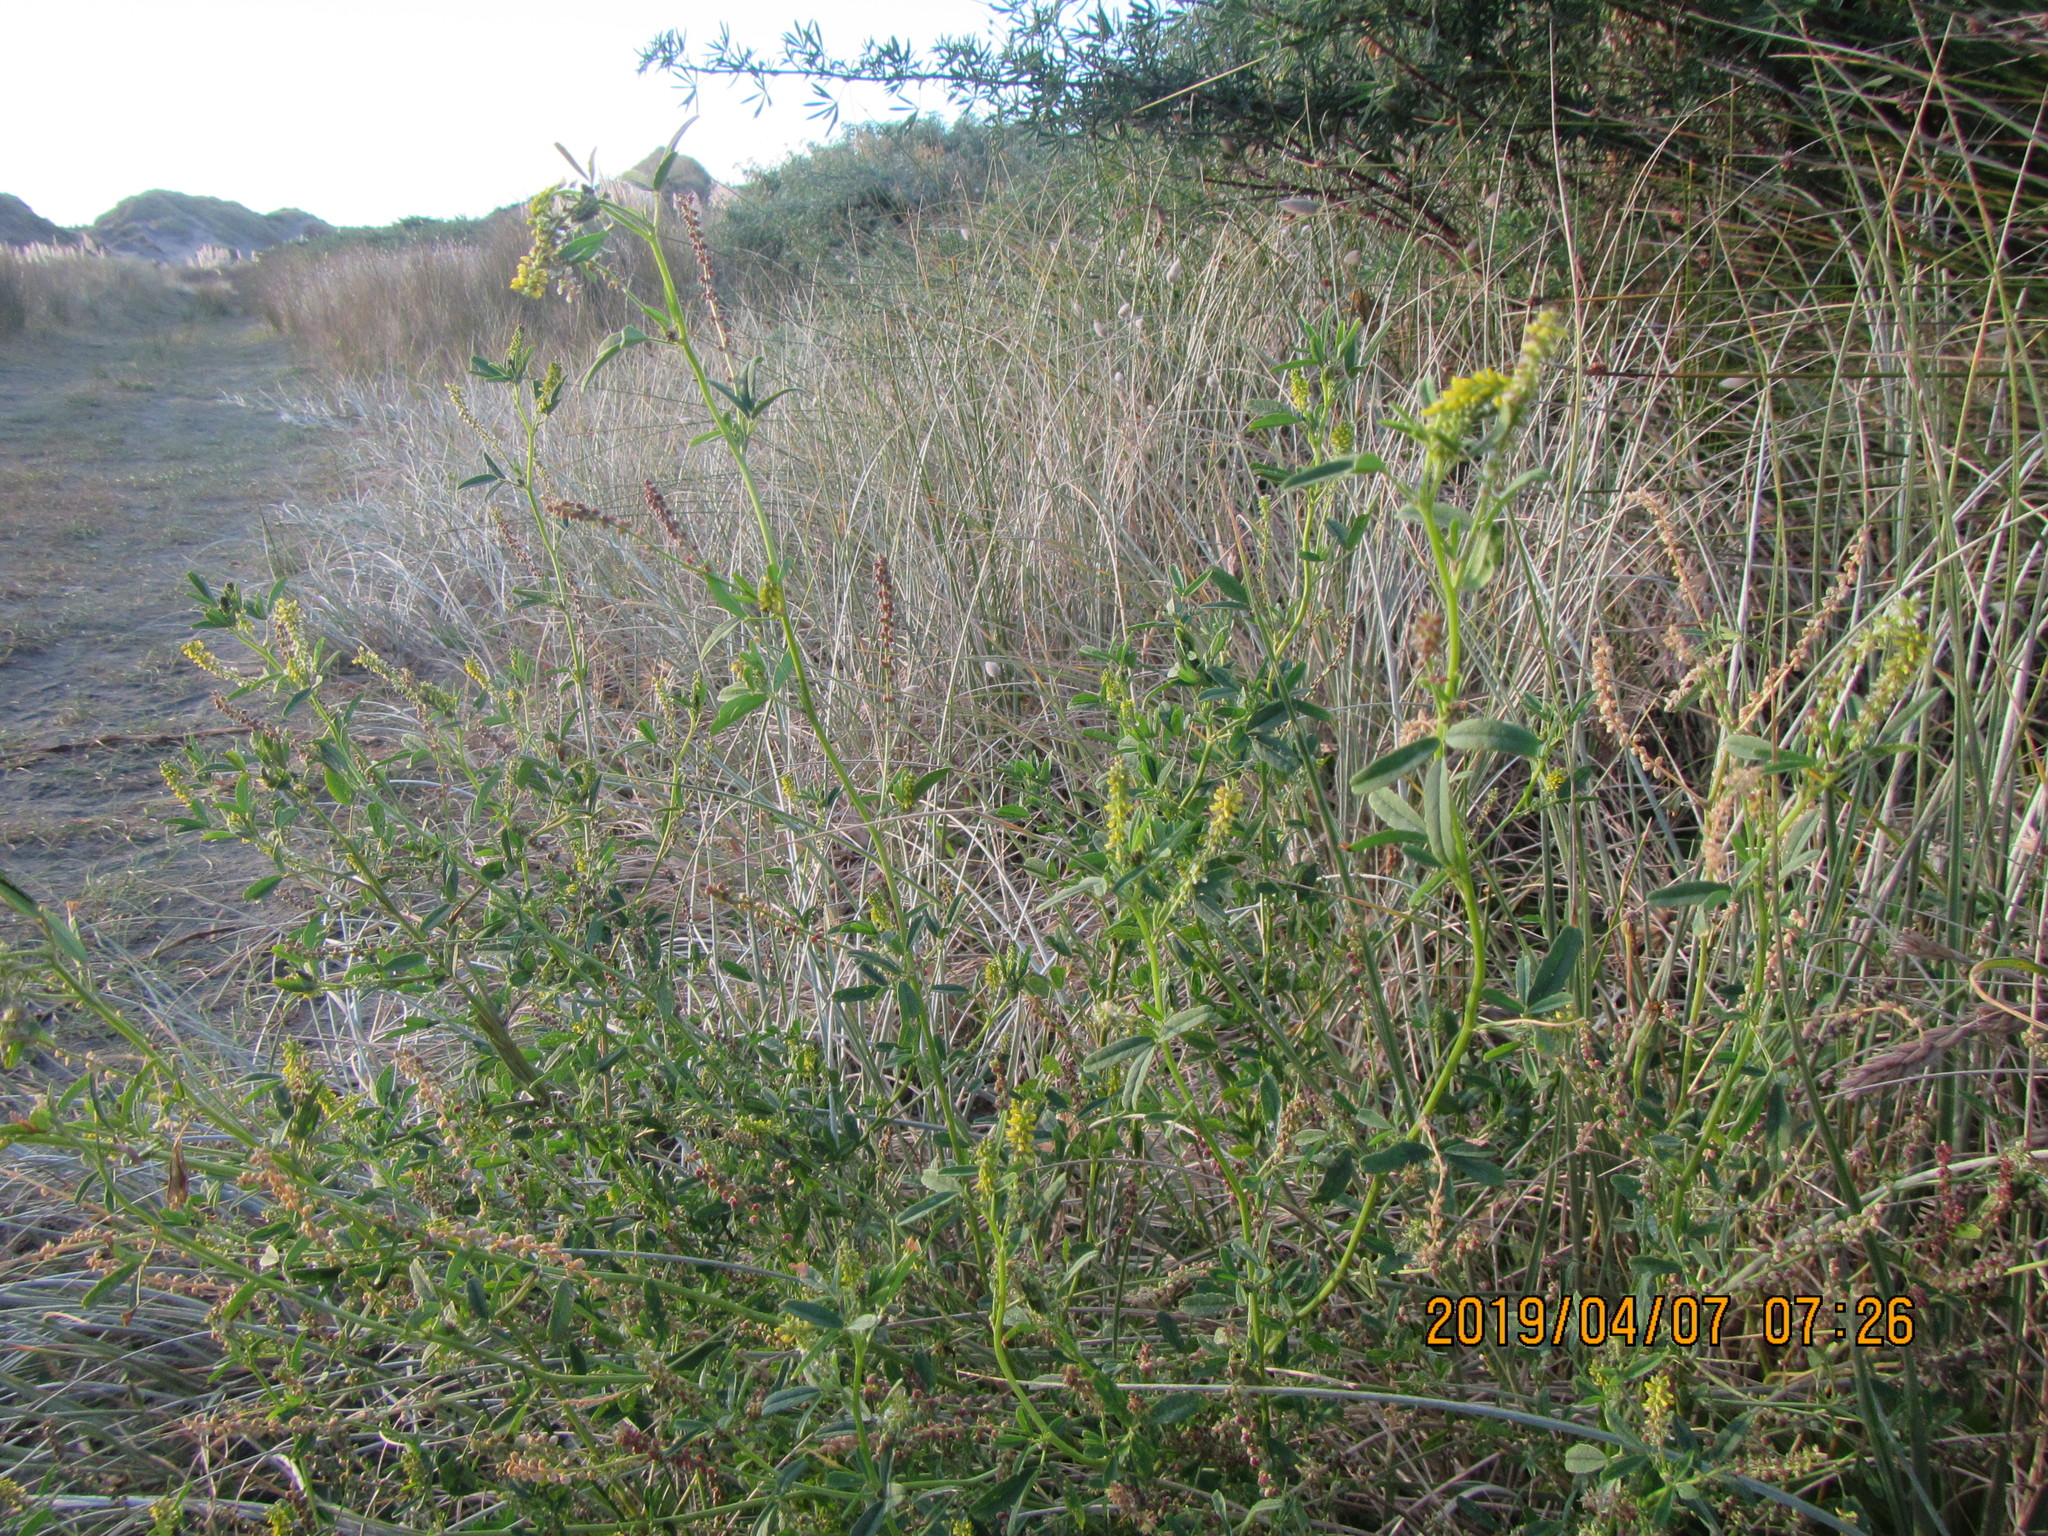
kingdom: Plantae
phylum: Tracheophyta
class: Magnoliopsida
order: Fabales
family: Fabaceae
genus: Melilotus
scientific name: Melilotus indicus
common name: Small melilot
